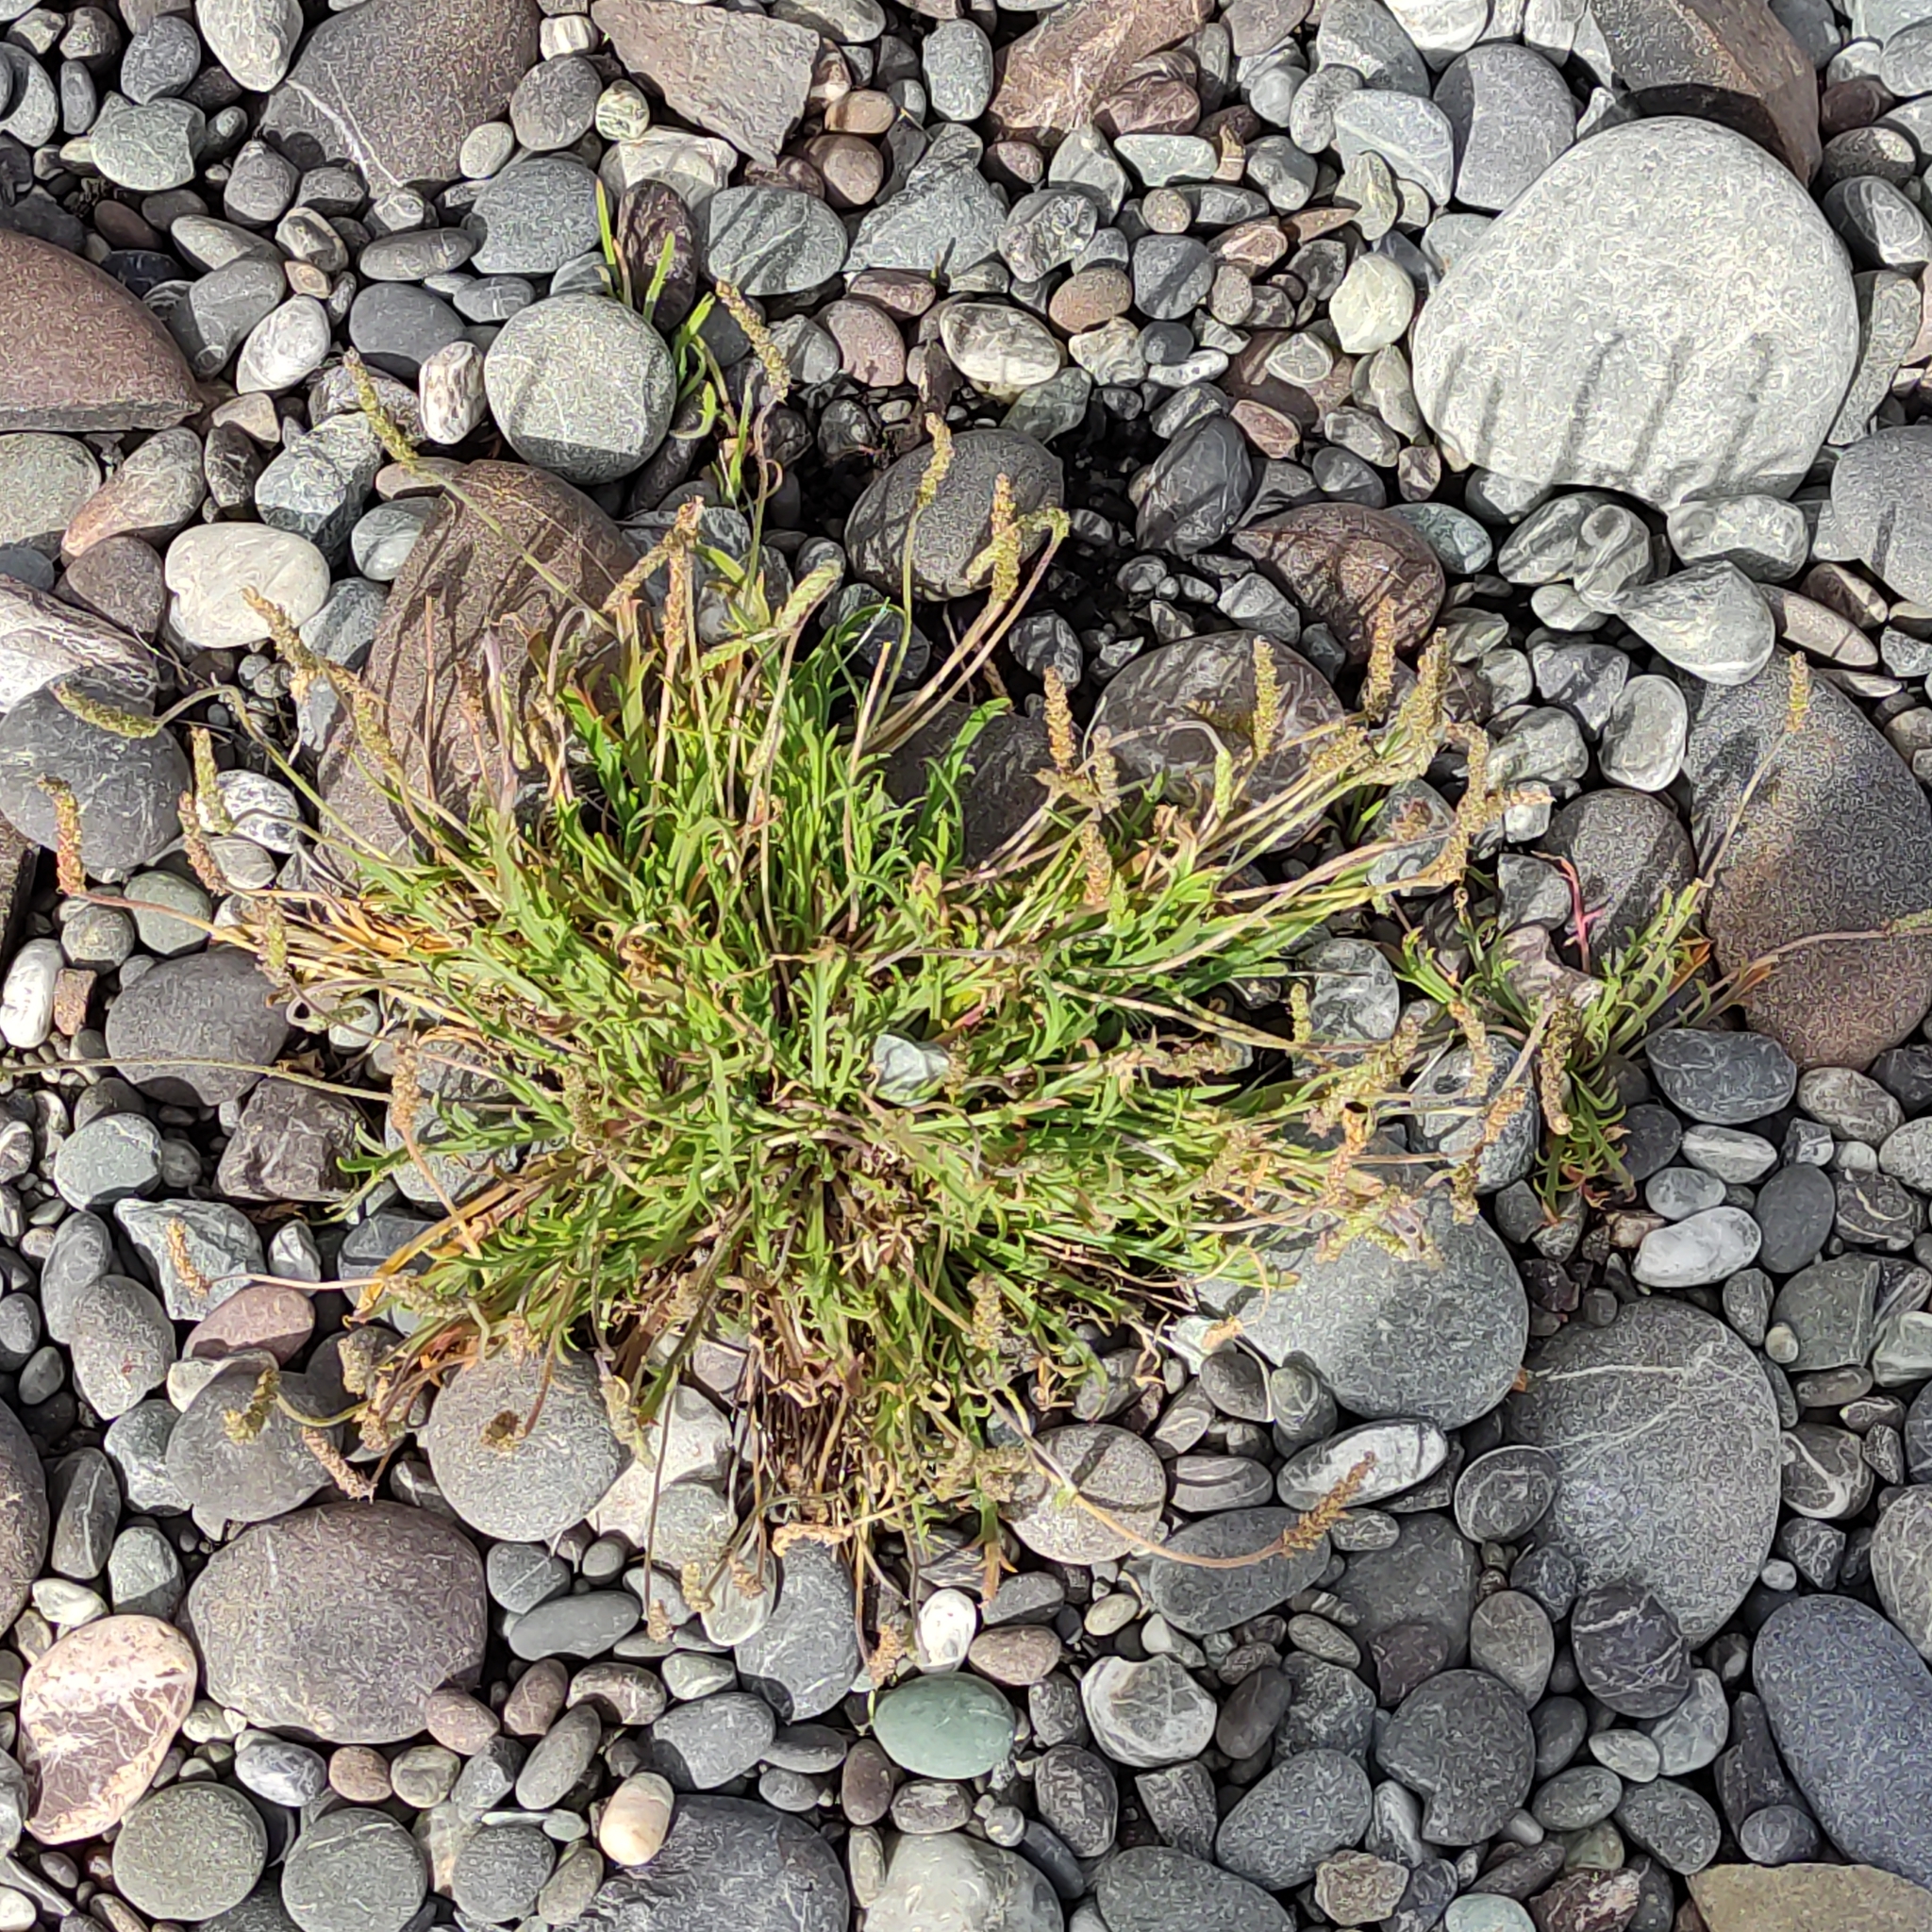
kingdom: Plantae
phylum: Tracheophyta
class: Magnoliopsida
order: Lamiales
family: Plantaginaceae
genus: Plantago
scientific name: Plantago coronopus
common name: Buck's-horn plantain
